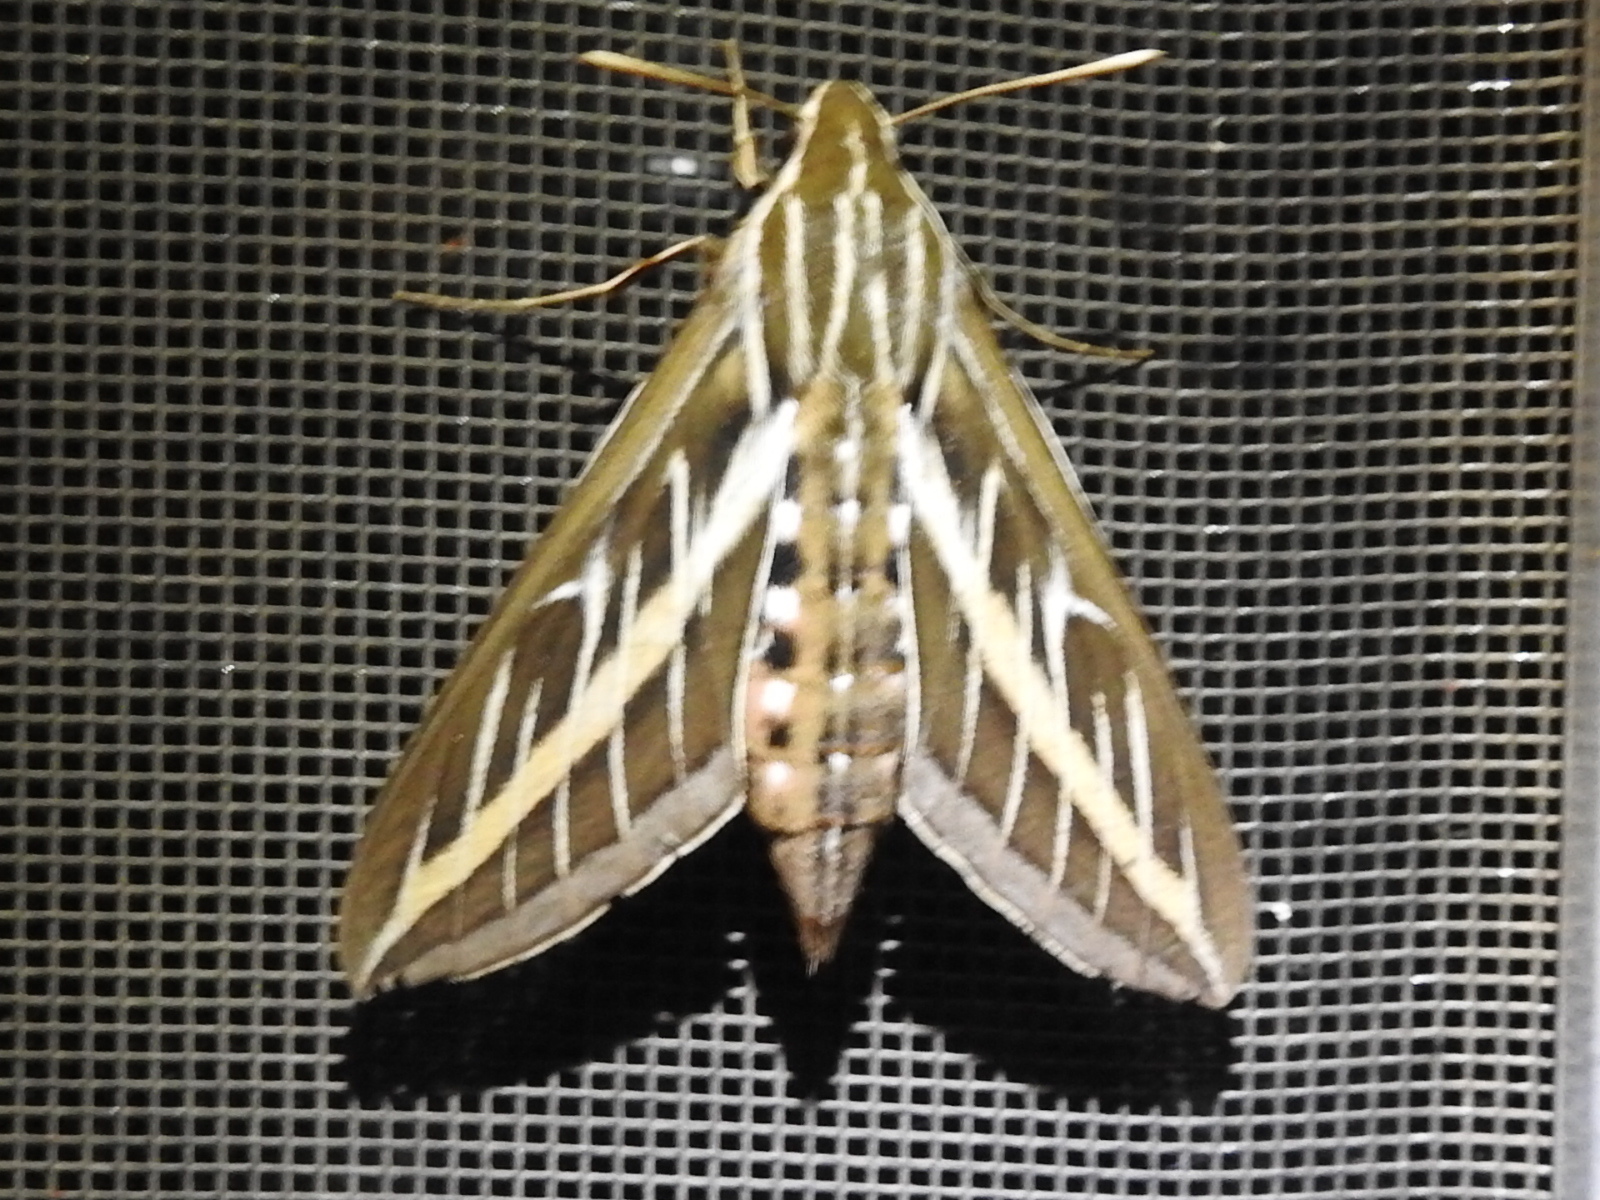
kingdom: Animalia
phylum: Arthropoda
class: Insecta
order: Lepidoptera
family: Sphingidae
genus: Hyles
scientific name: Hyles lineata
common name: White-lined sphinx
